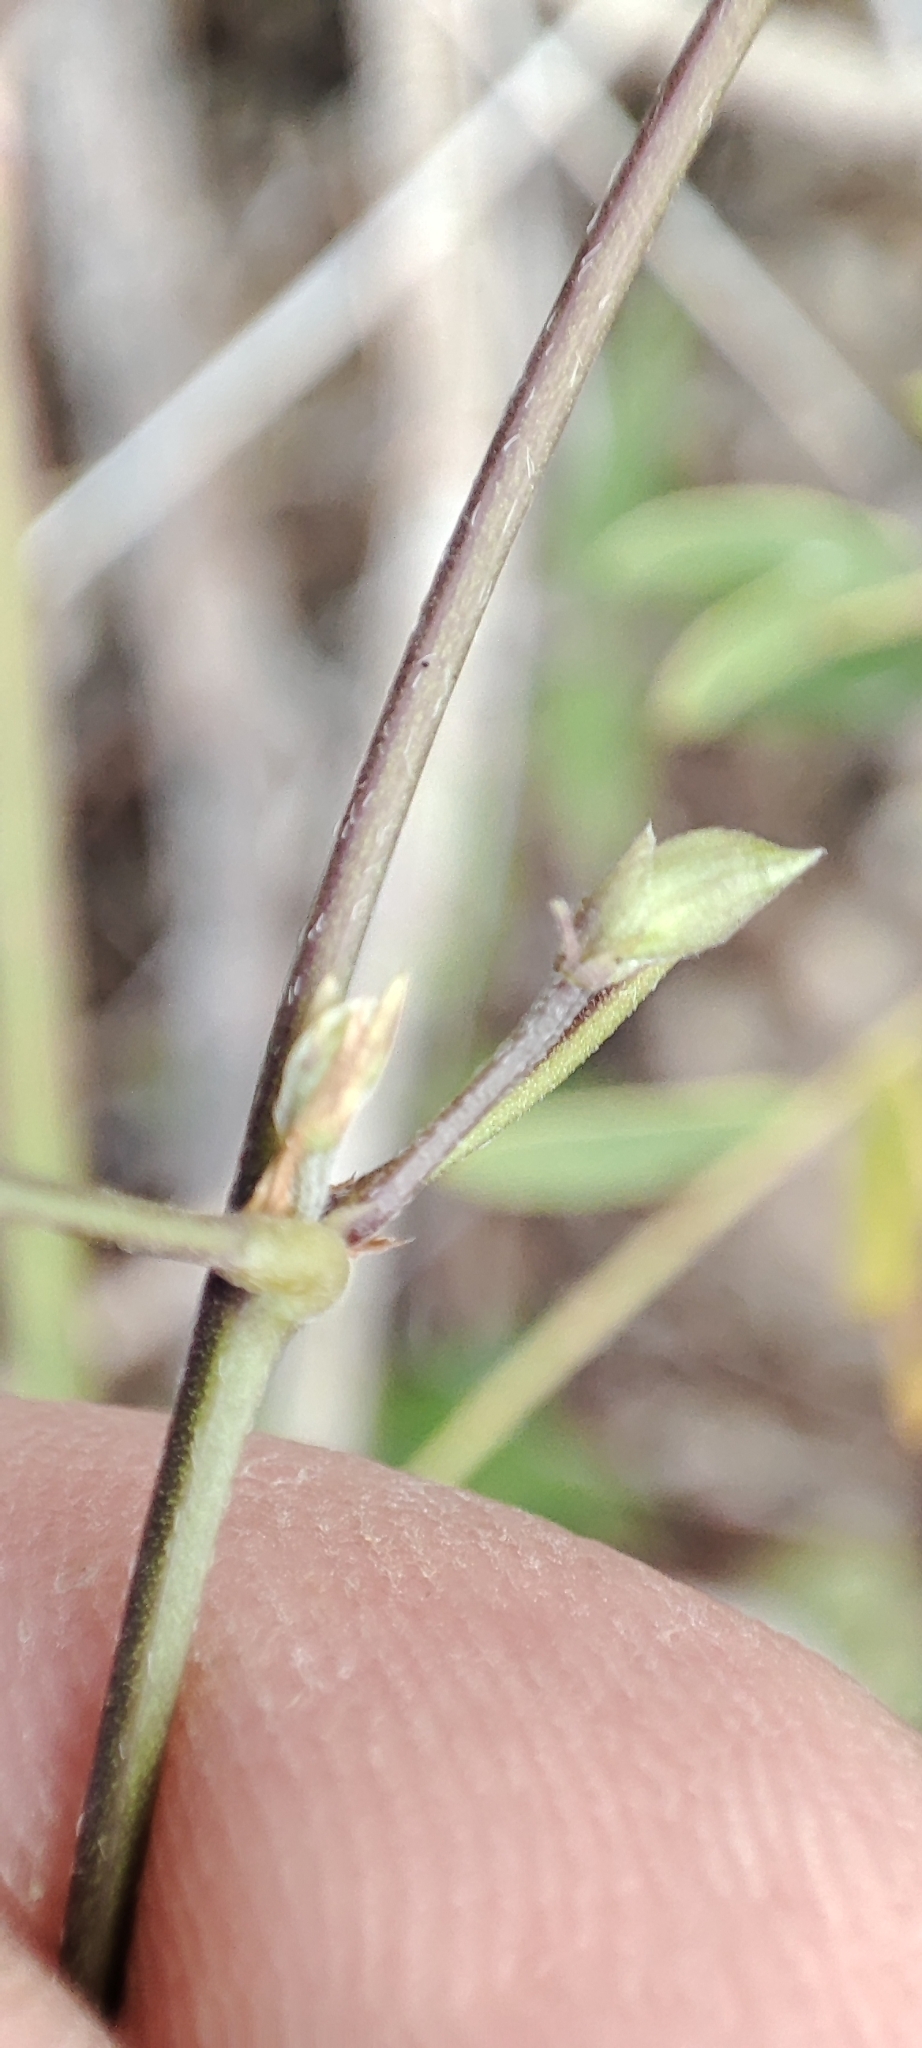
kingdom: Plantae
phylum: Tracheophyta
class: Magnoliopsida
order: Fabales
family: Fabaceae
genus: Centrosema
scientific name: Centrosema virginianum
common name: Butterfly-pea
